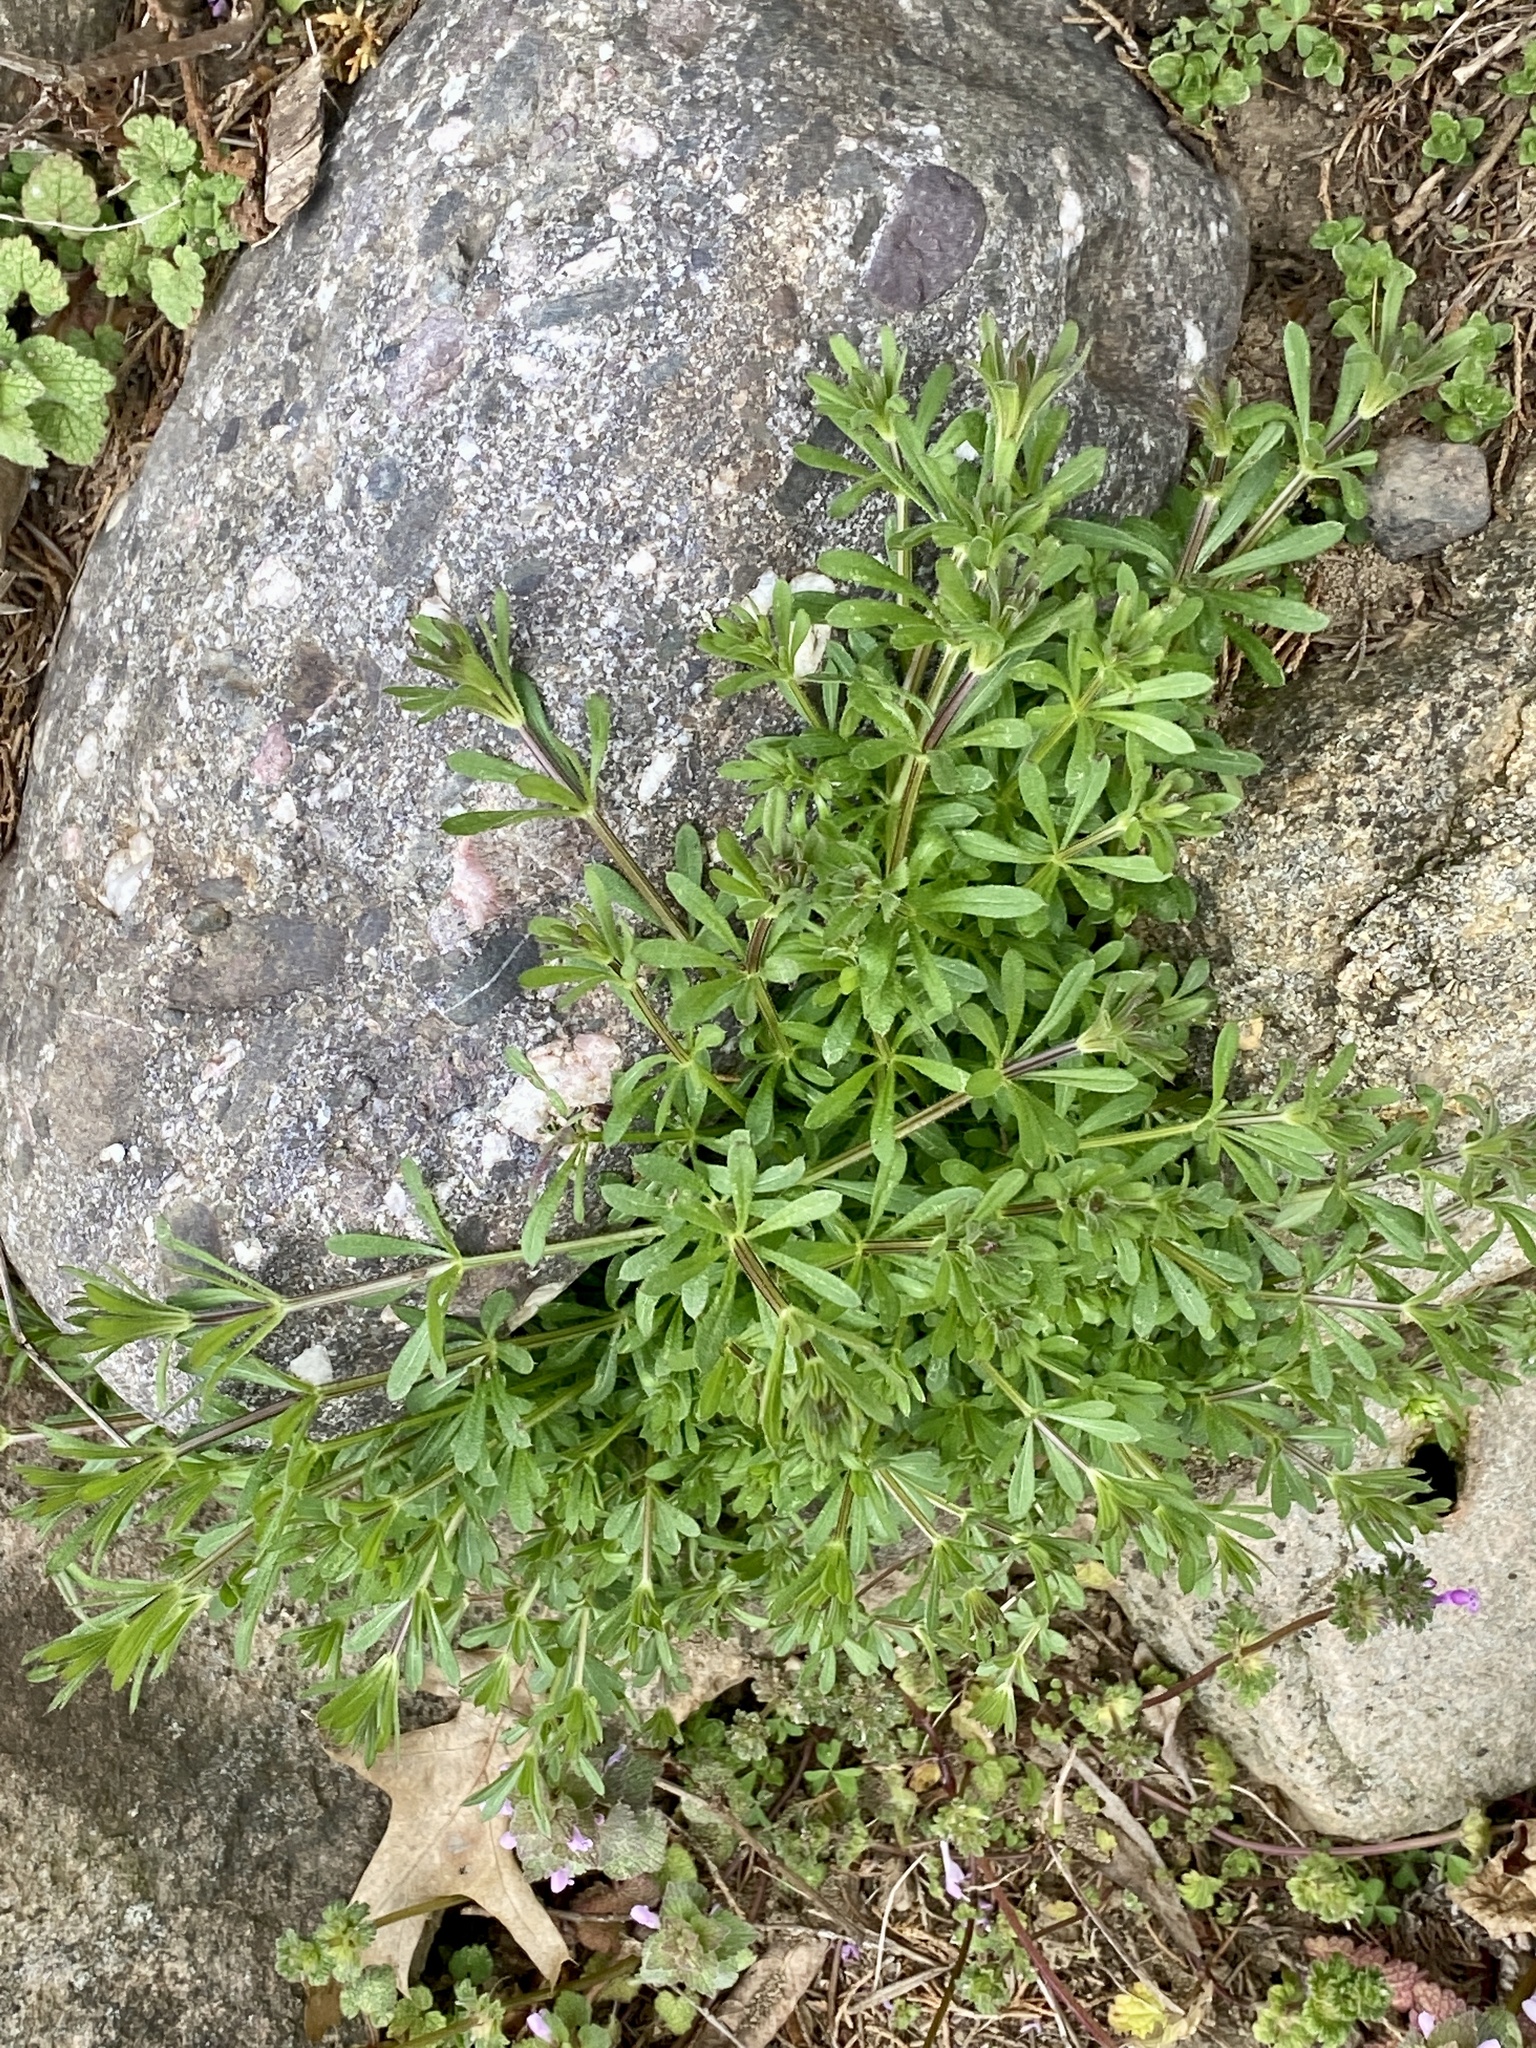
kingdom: Plantae
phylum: Tracheophyta
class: Magnoliopsida
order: Gentianales
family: Rubiaceae
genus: Galium
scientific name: Galium aparine
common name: Cleavers
